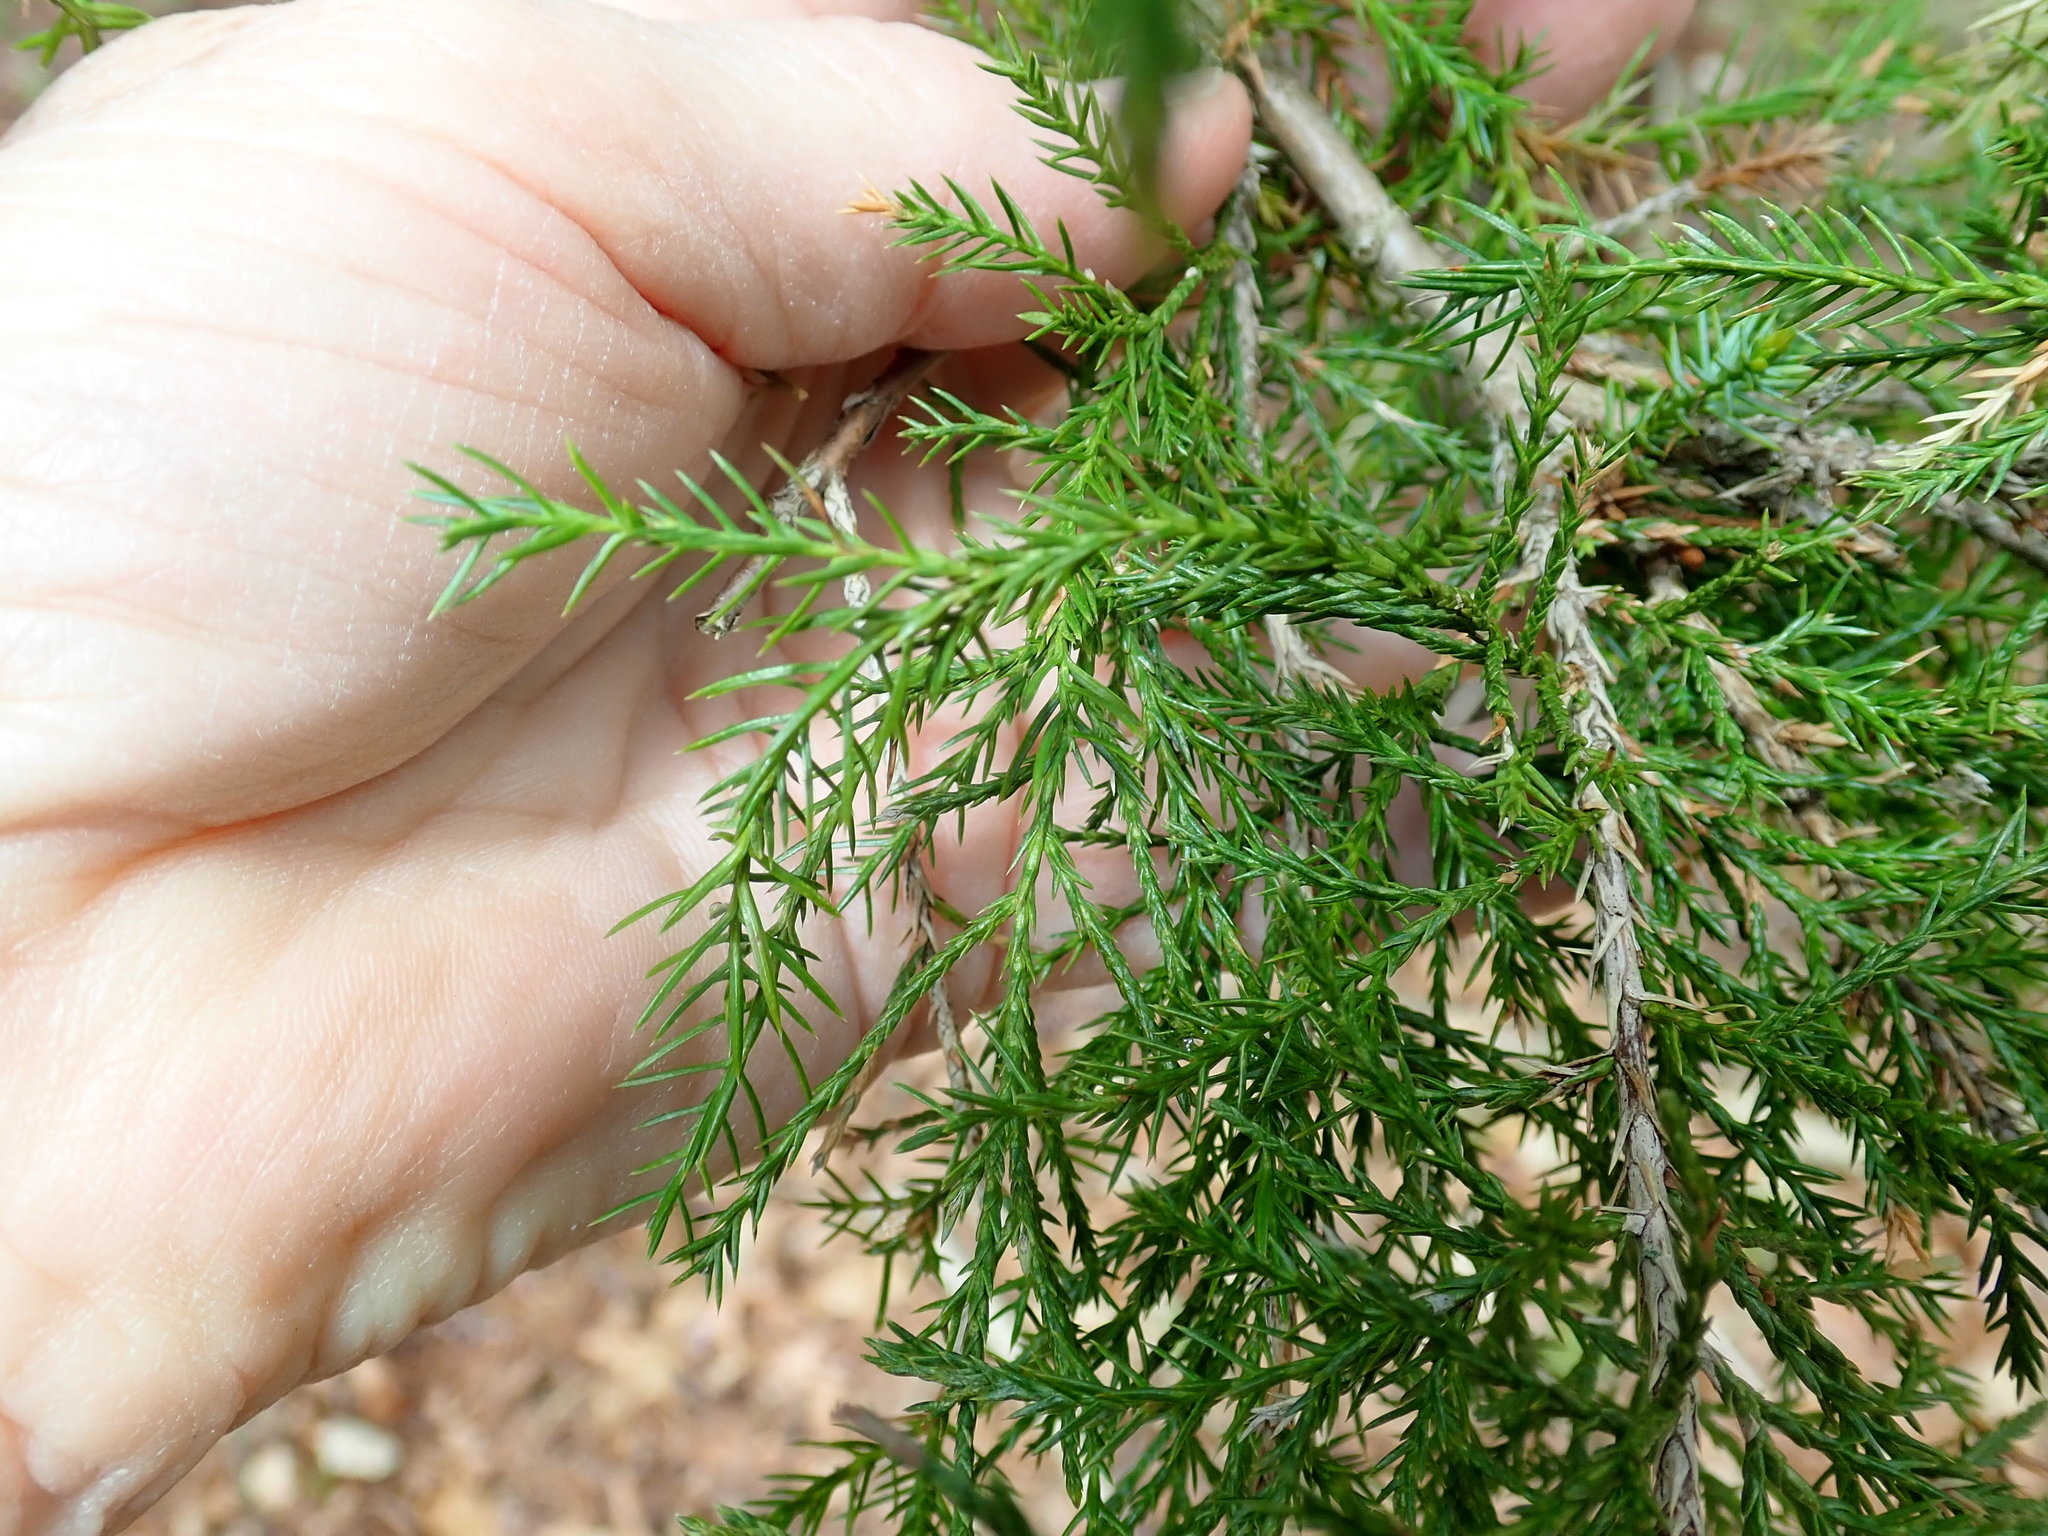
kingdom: Plantae
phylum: Tracheophyta
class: Pinopsida
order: Pinales
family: Cupressaceae
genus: Juniperus
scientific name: Juniperus virginiana
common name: Red juniper
